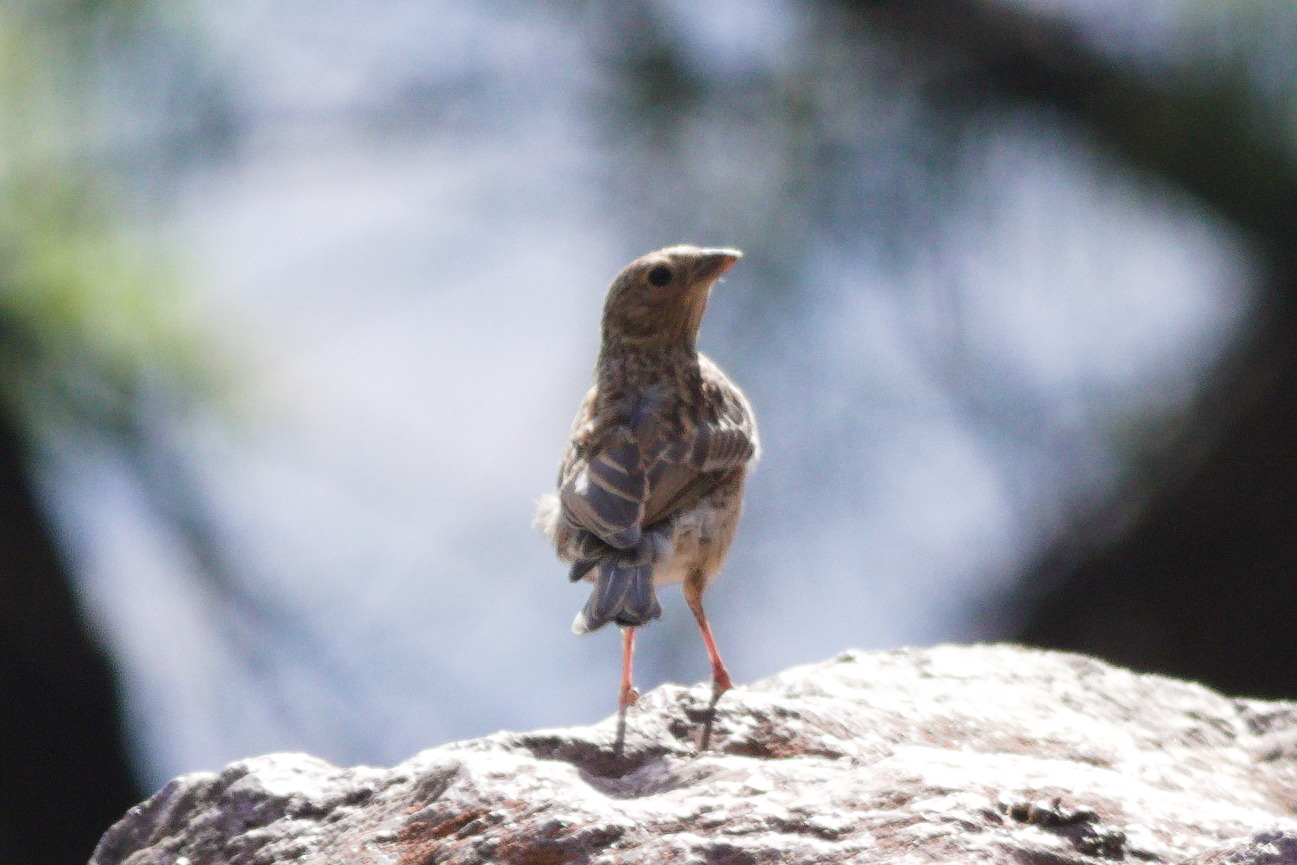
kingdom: Animalia
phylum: Chordata
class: Aves
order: Passeriformes
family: Thraupidae
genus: Porphyrospiza
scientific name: Porphyrospiza alaudina
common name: Band-tailed sierra finch
